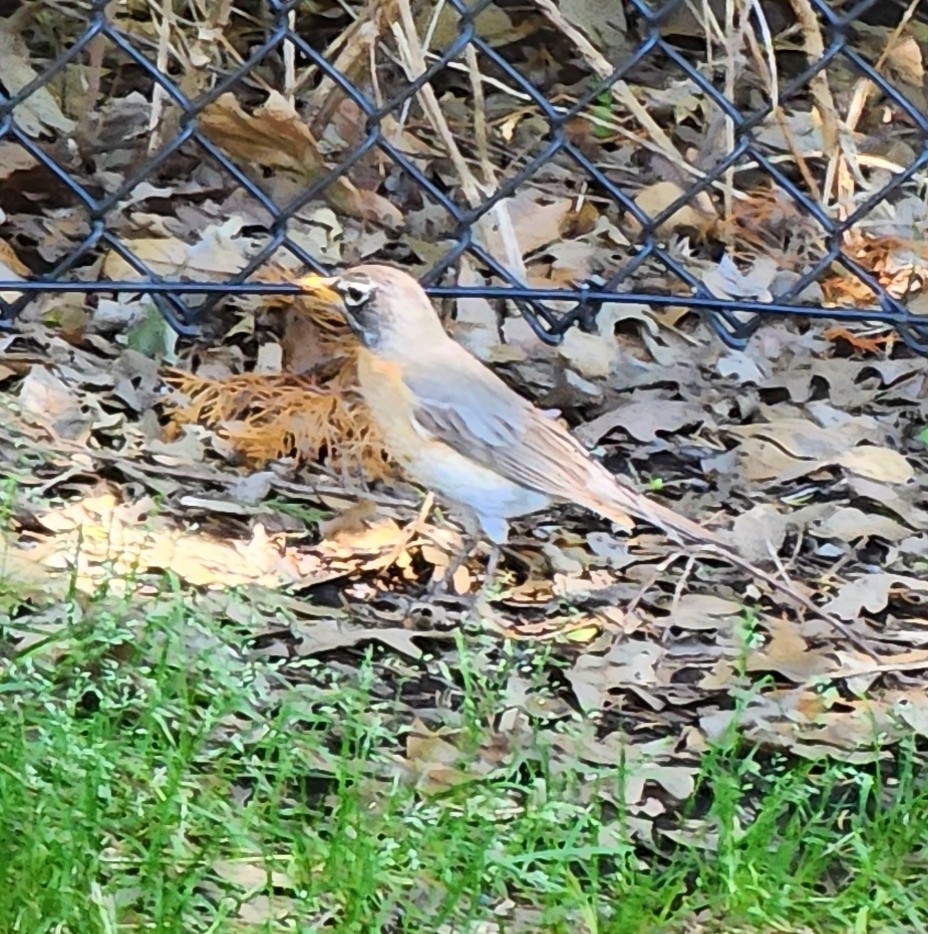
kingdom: Animalia
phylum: Chordata
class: Aves
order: Passeriformes
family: Turdidae
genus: Turdus
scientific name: Turdus migratorius
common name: American robin
